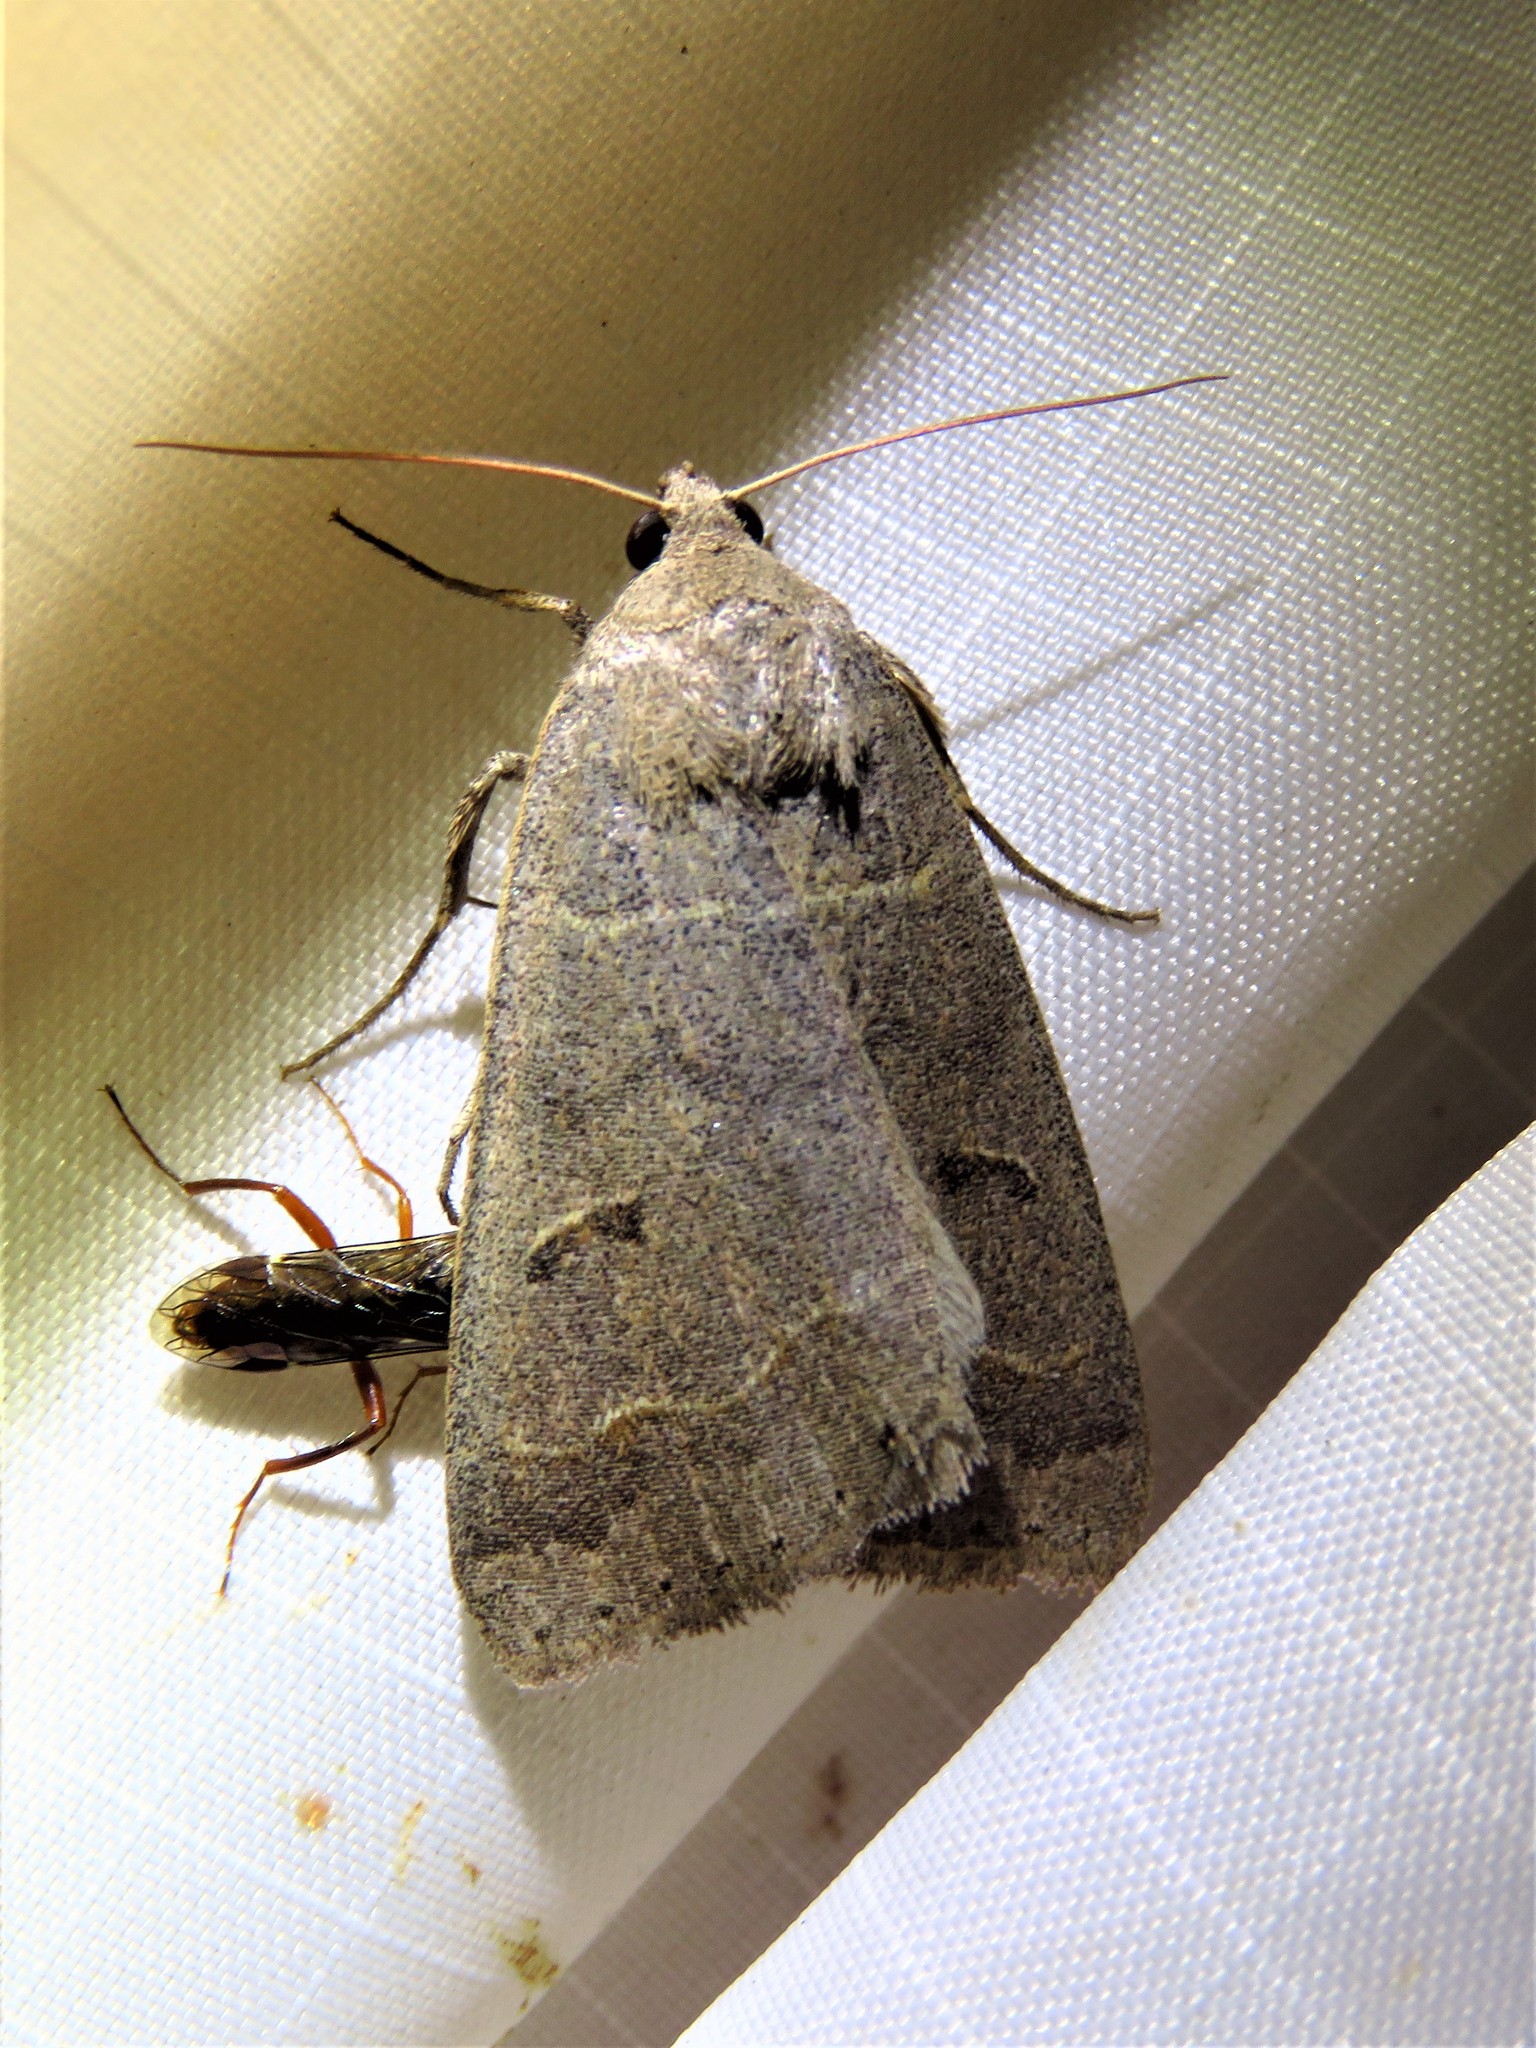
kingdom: Animalia
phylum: Arthropoda
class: Insecta
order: Lepidoptera
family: Erebidae
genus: Phoberia
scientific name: Phoberia atomaris
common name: Common oak moth
